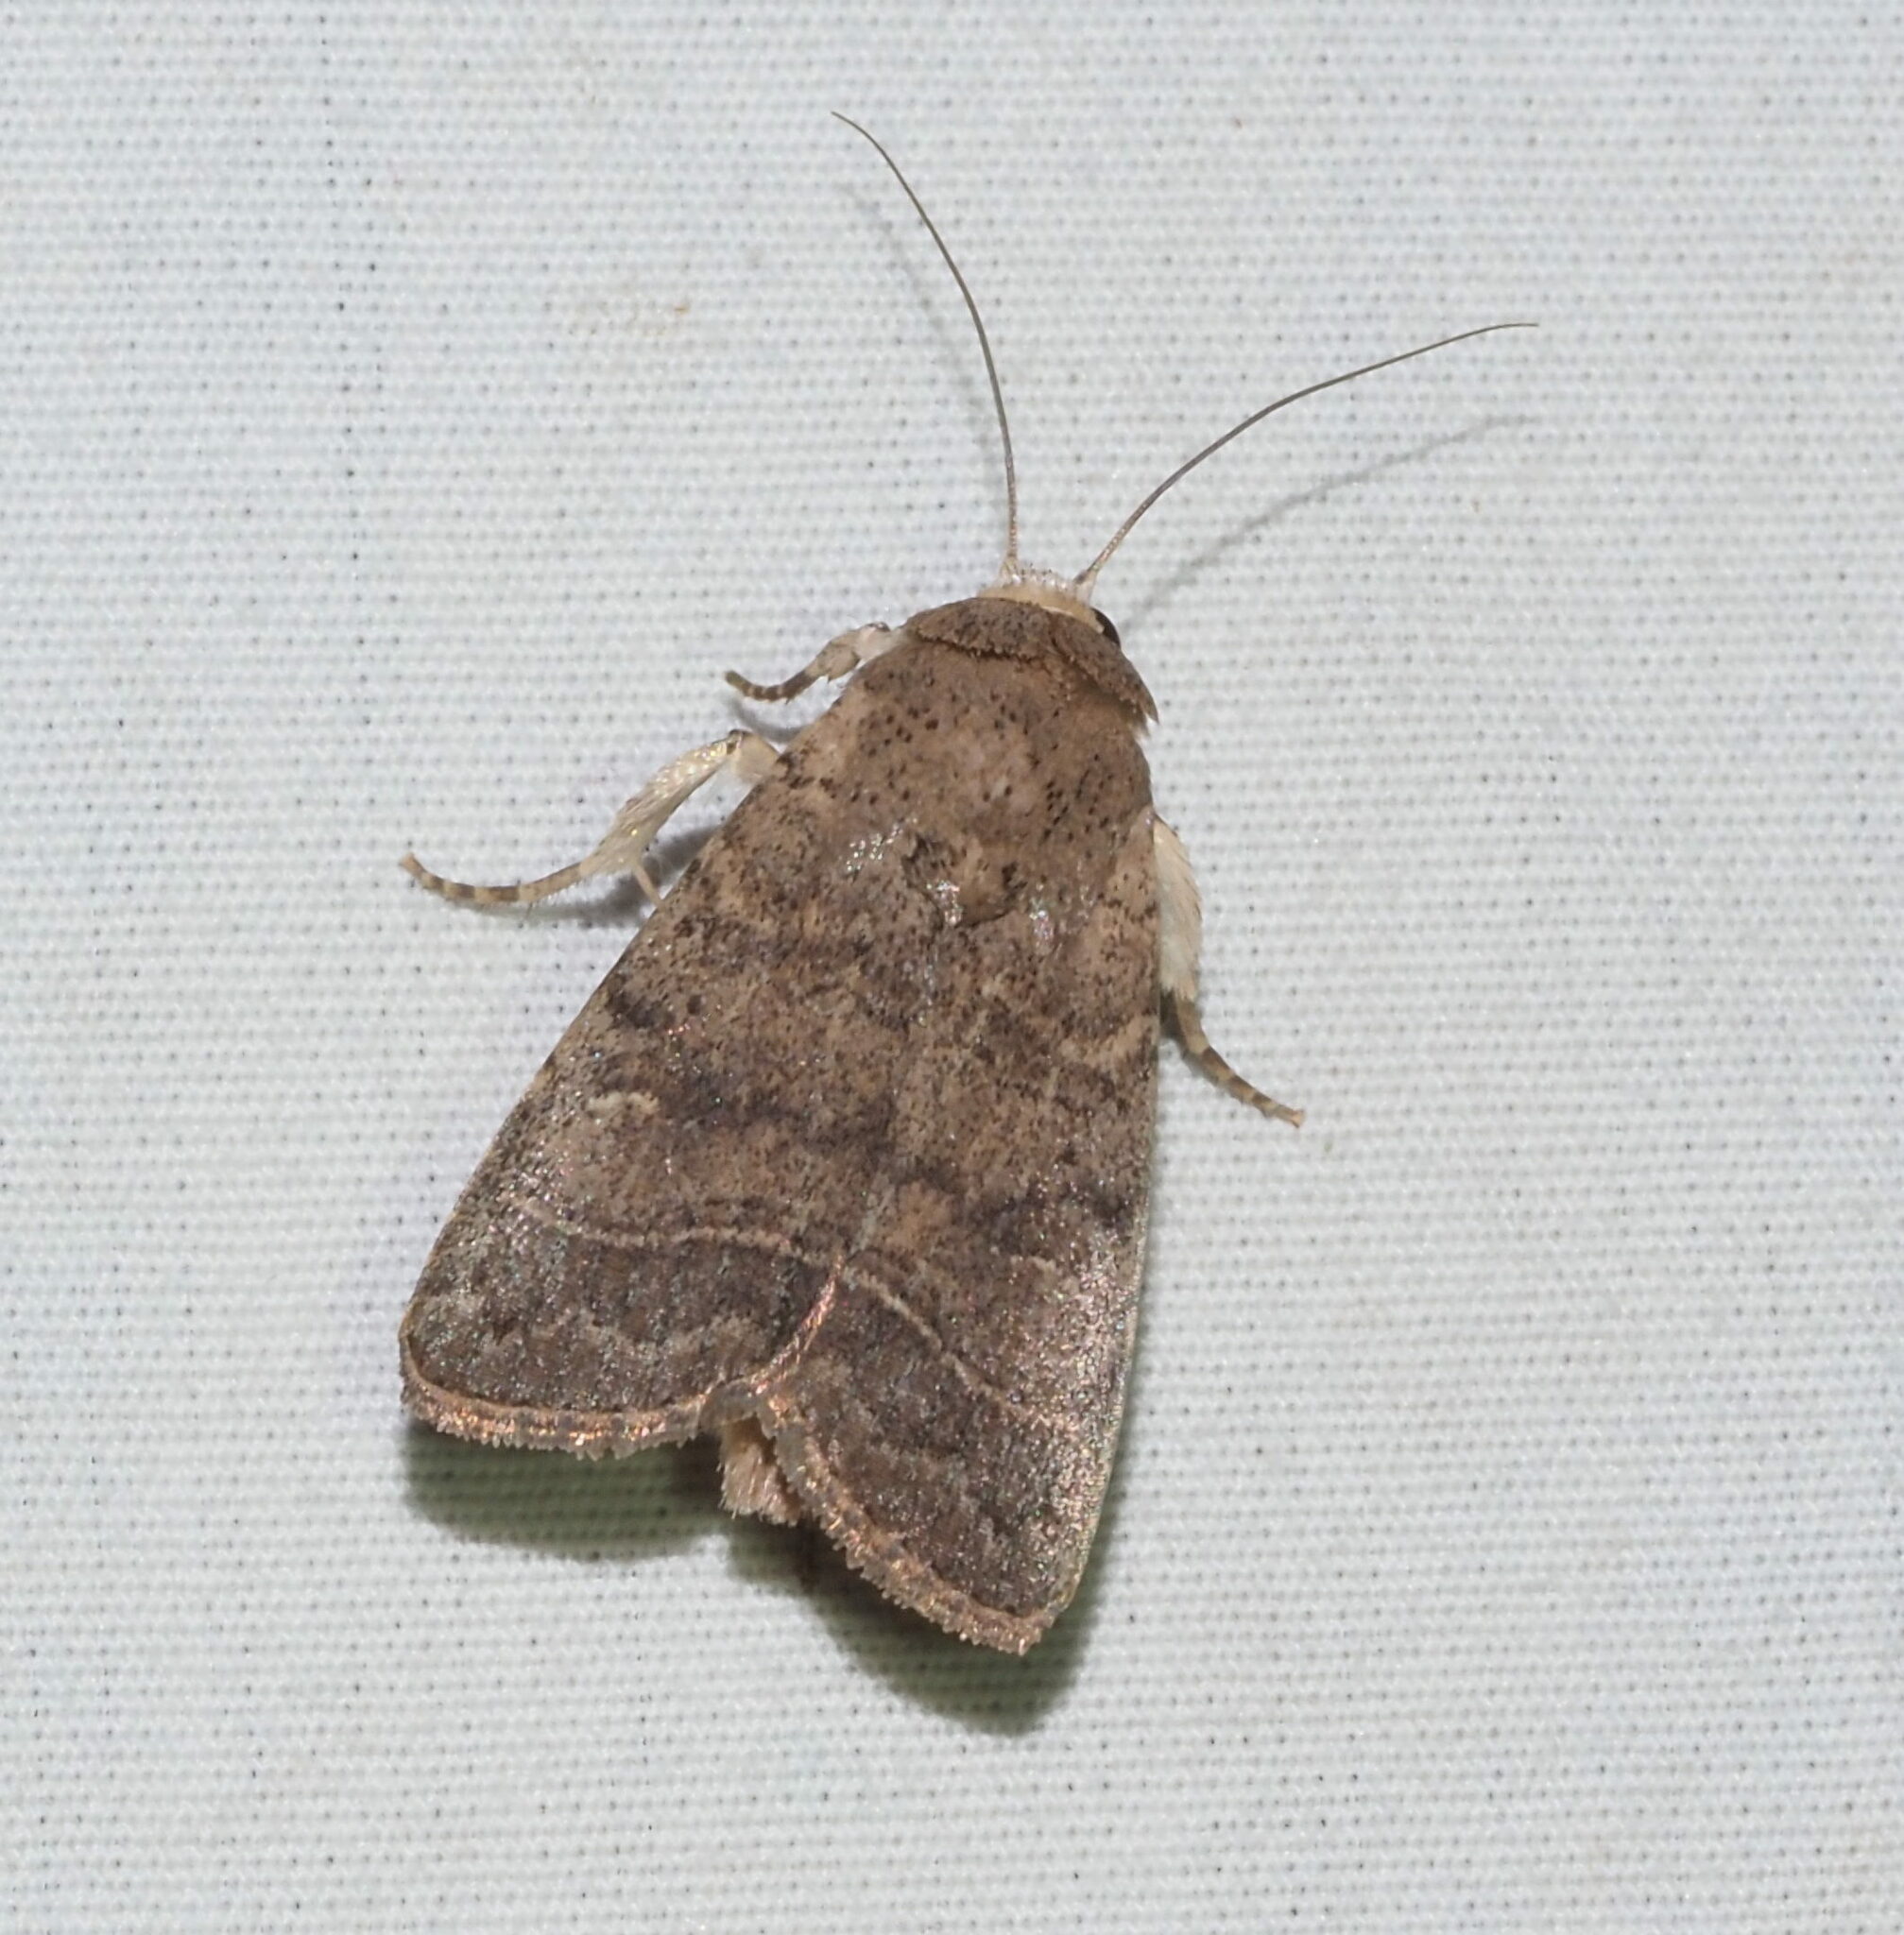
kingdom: Animalia
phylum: Arthropoda
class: Insecta
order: Lepidoptera
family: Noctuidae
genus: Athetis
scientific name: Athetis thoracica
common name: Cutworm
